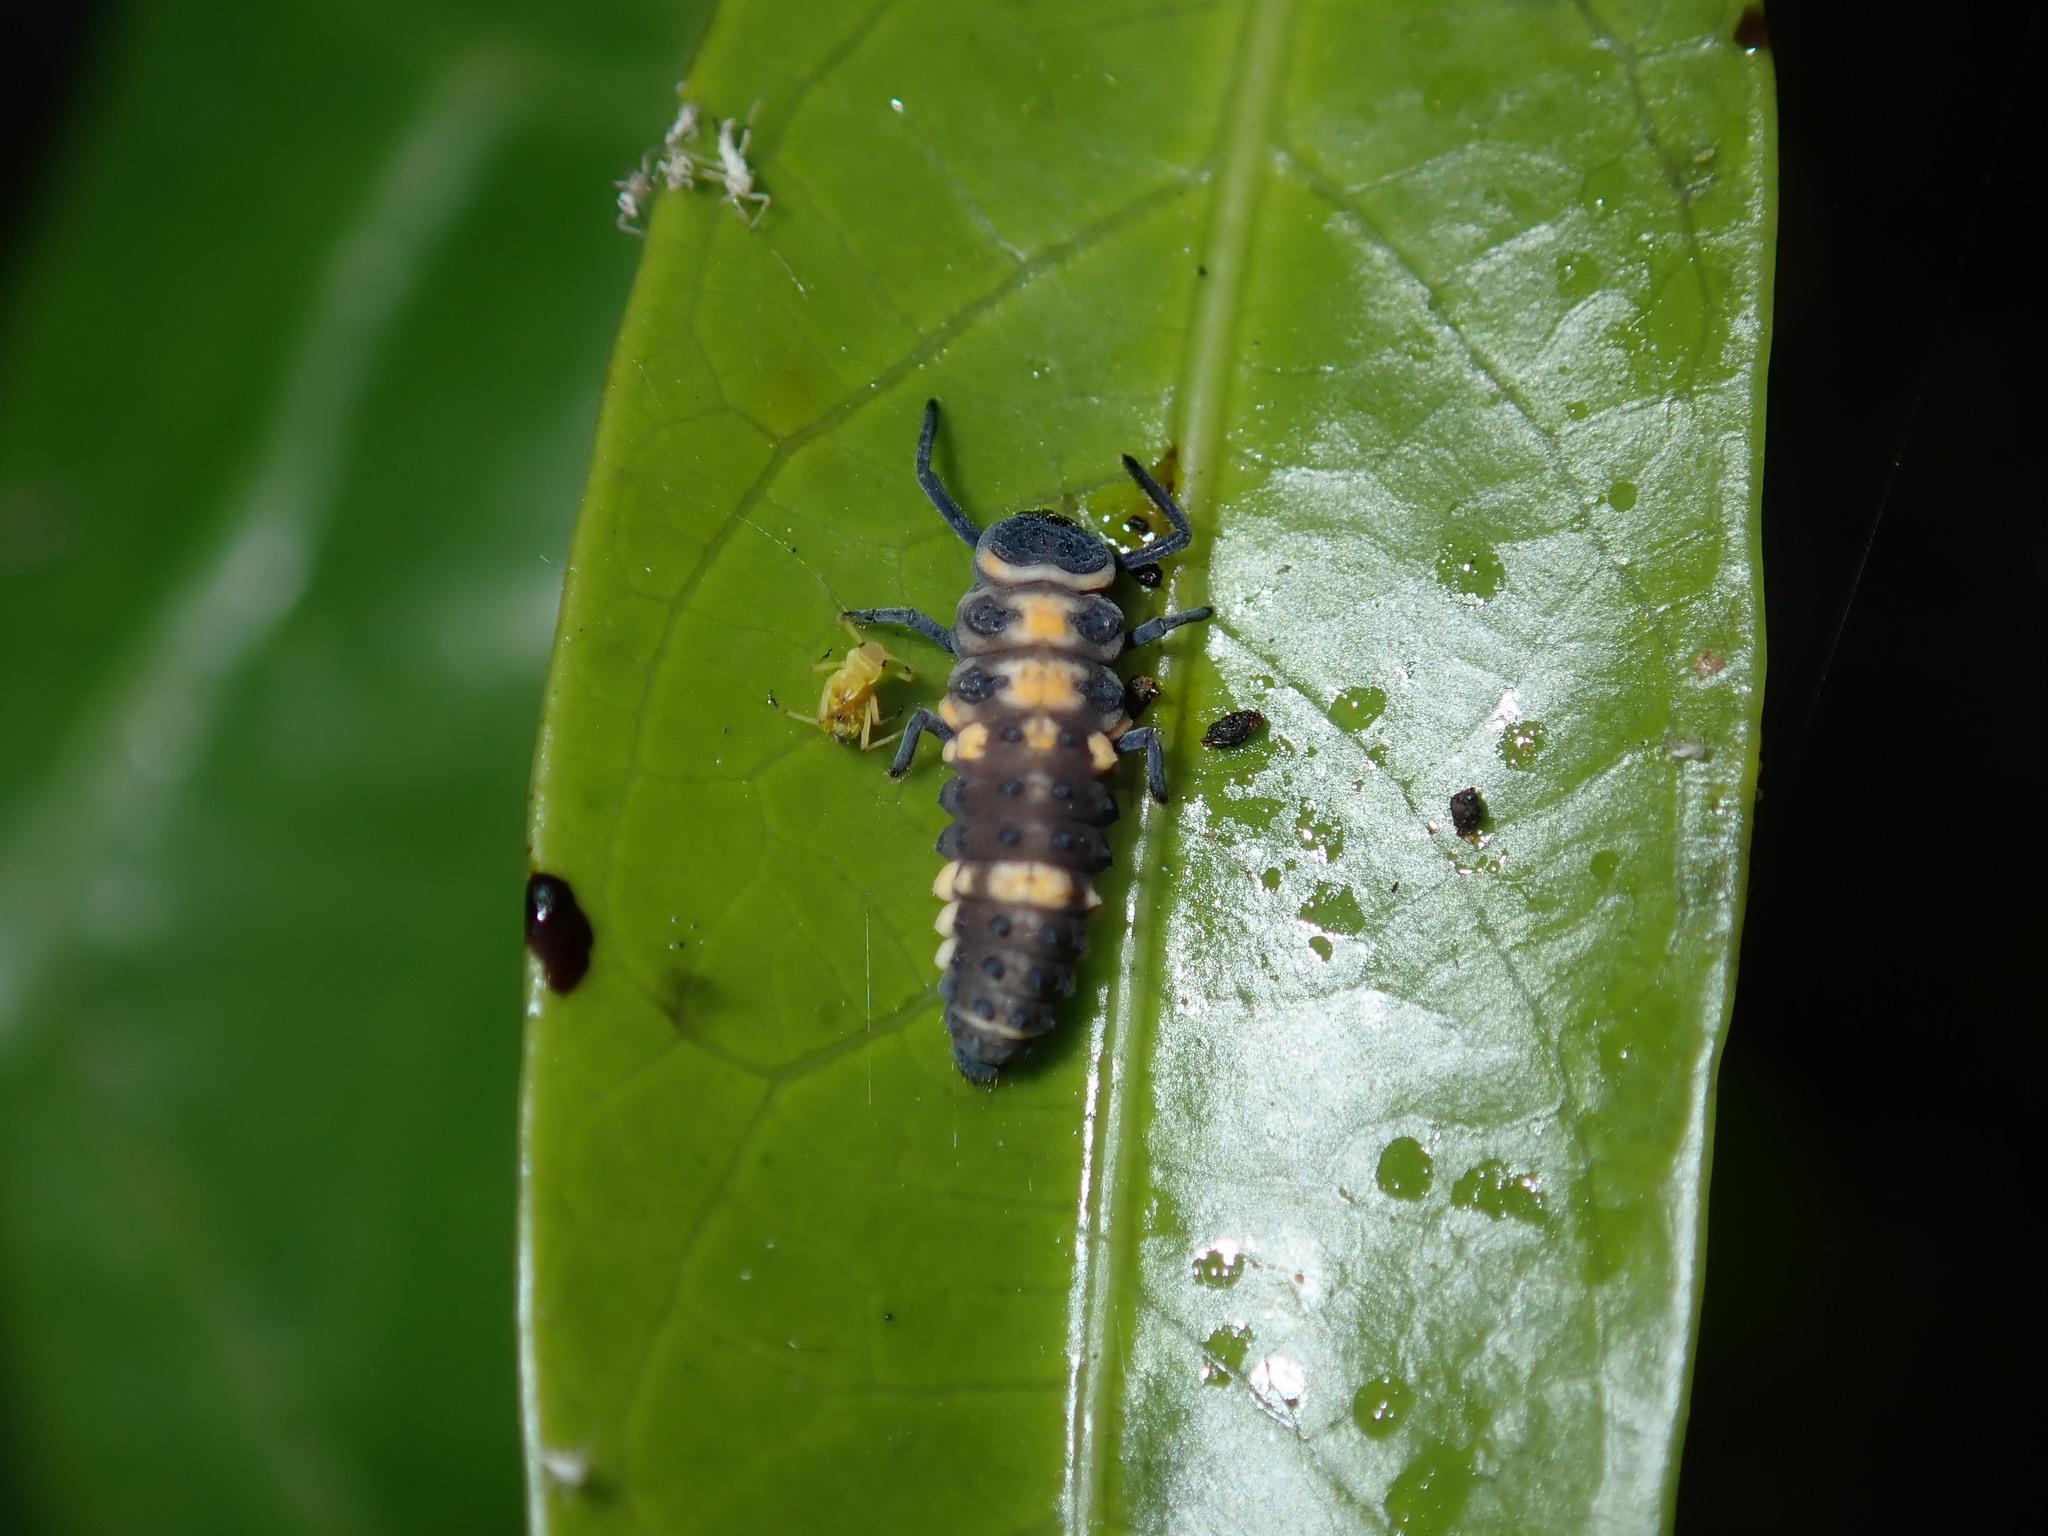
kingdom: Animalia
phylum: Arthropoda
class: Insecta
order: Coleoptera
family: Coccinellidae
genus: Coelophora
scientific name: Coelophora inaequalis
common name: Common australian lady beetle
